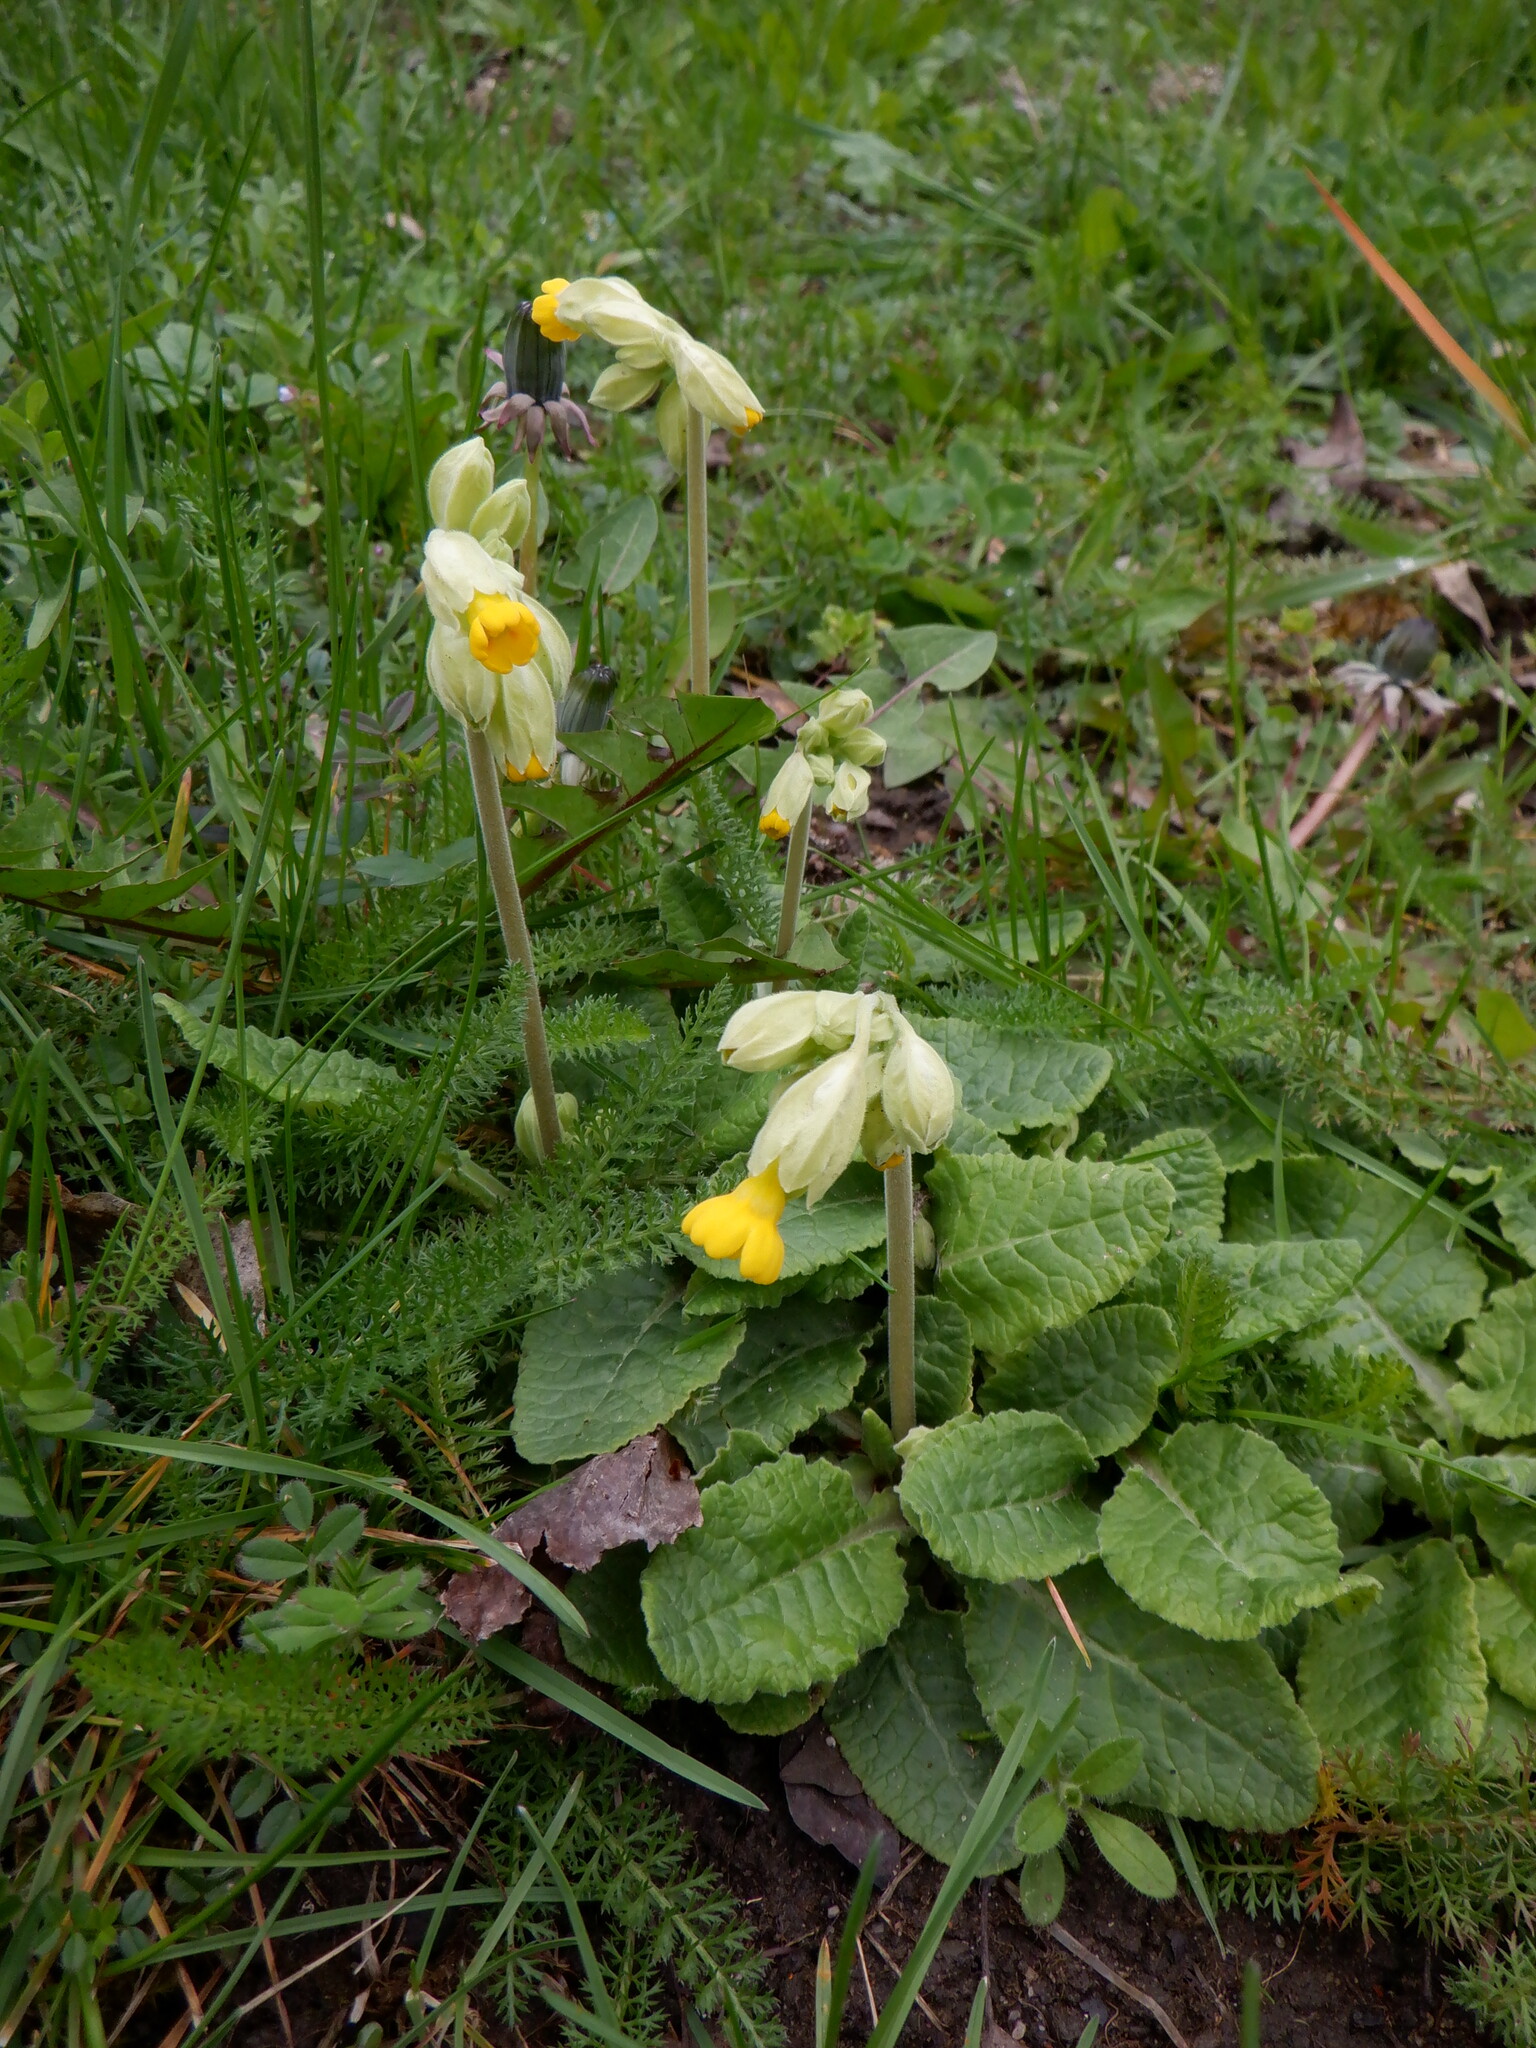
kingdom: Plantae
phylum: Tracheophyta
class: Magnoliopsida
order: Ericales
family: Primulaceae
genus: Primula
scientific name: Primula veris
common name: Cowslip
